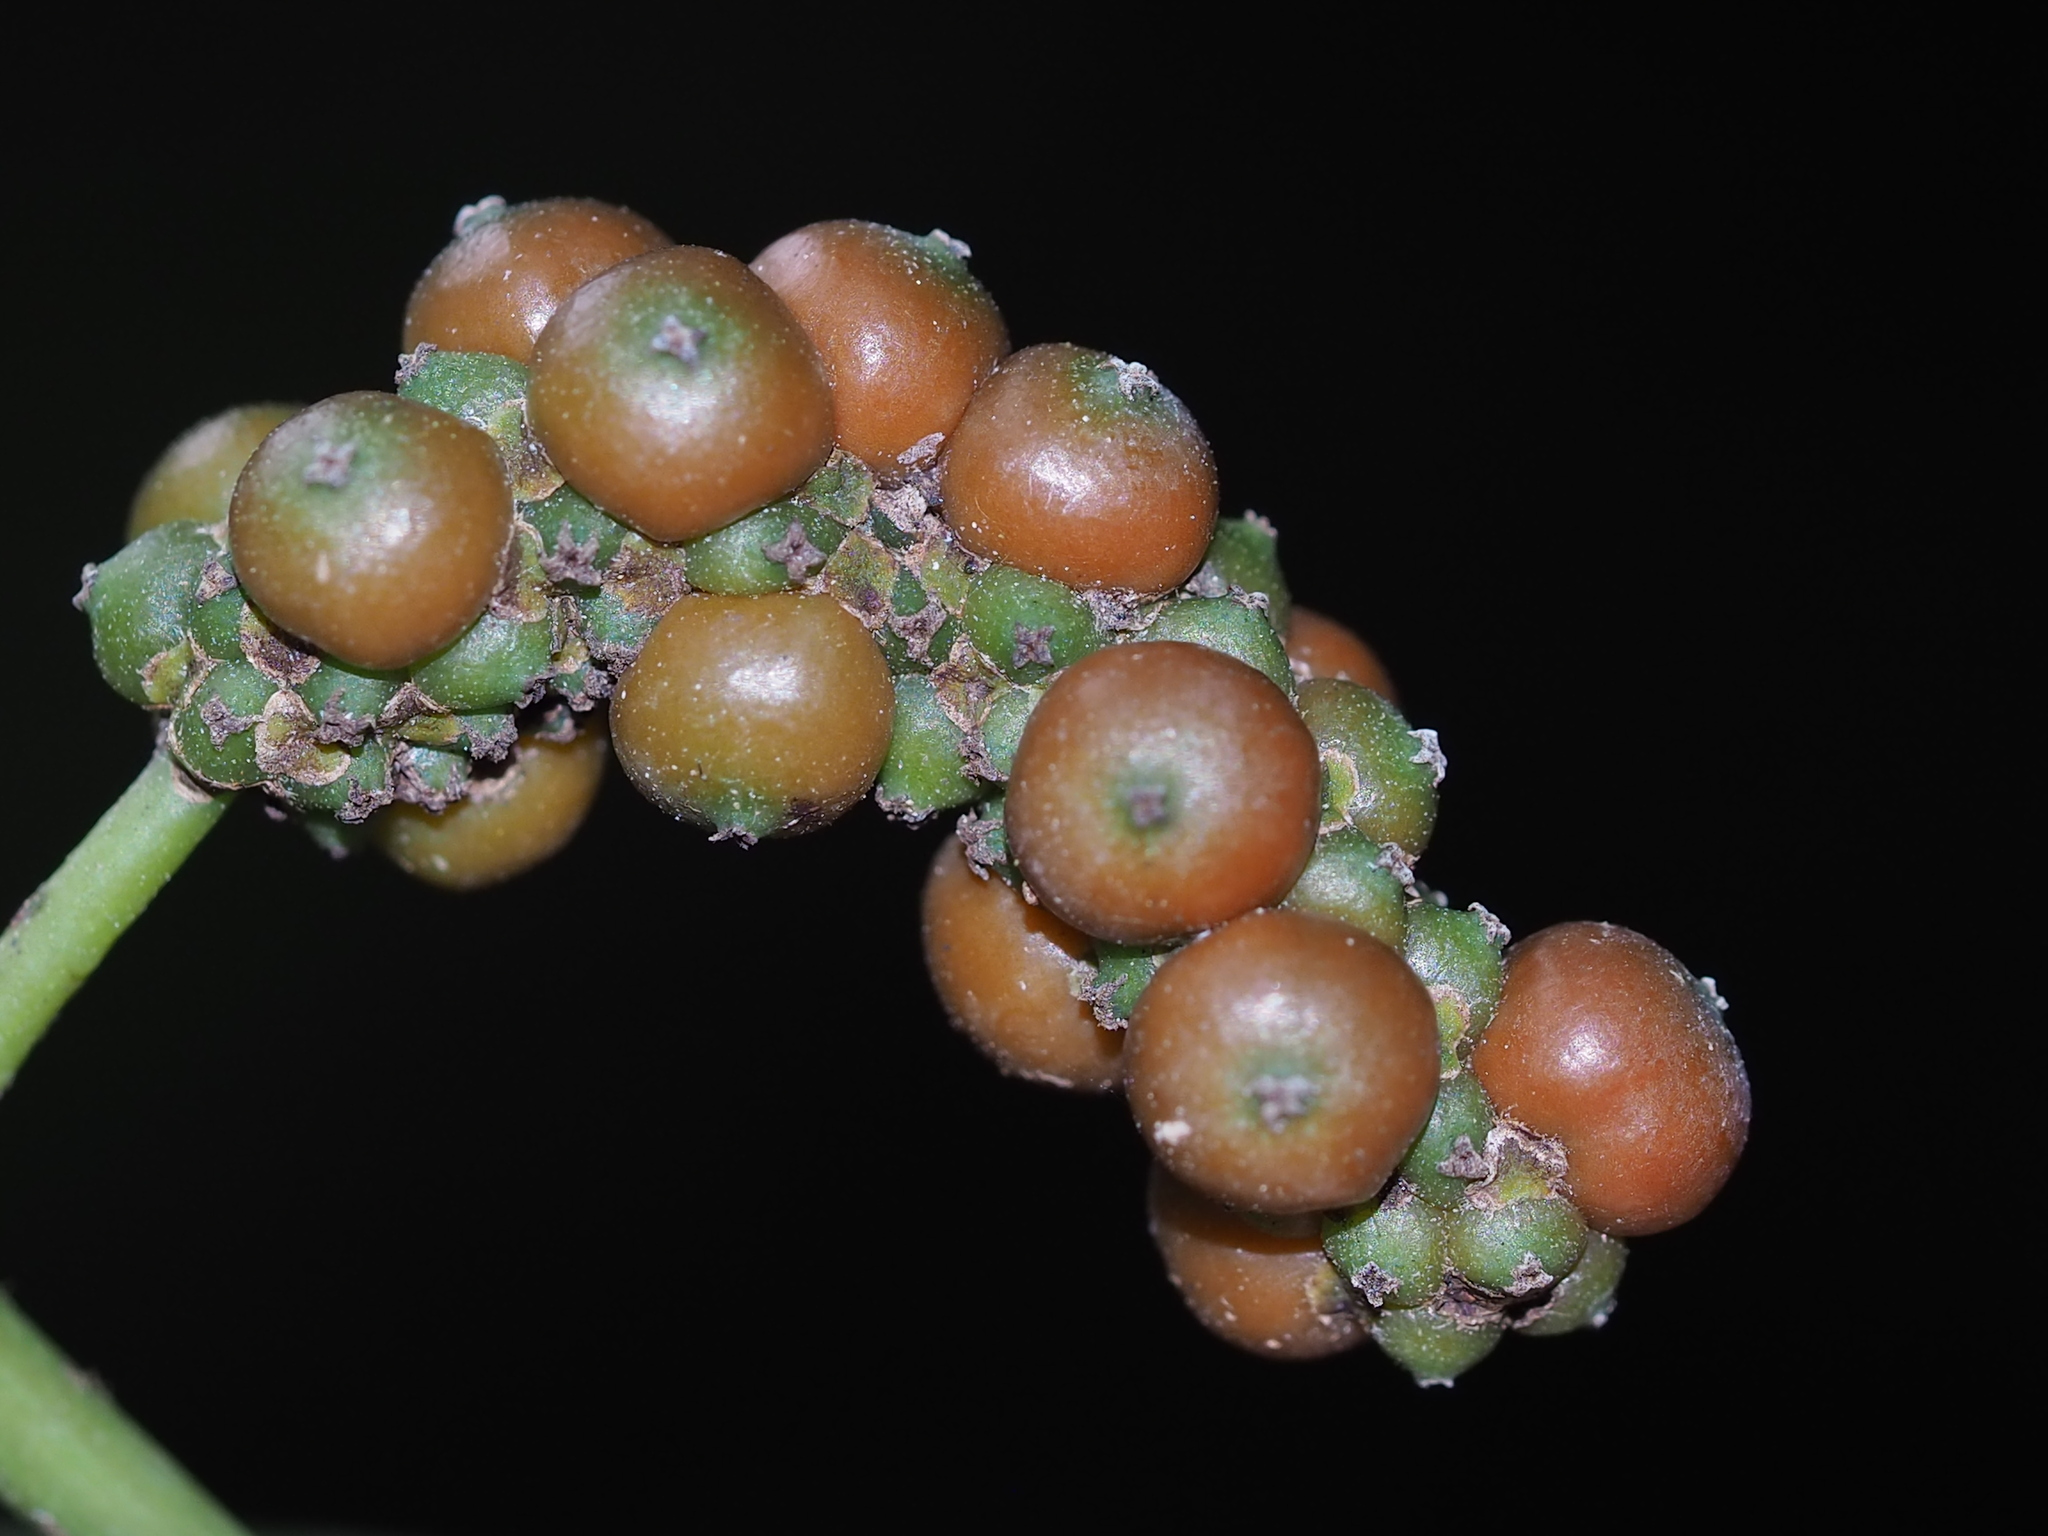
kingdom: Plantae
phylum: Tracheophyta
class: Magnoliopsida
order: Piperales
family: Piperaceae
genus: Piper
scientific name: Piper kadsura
